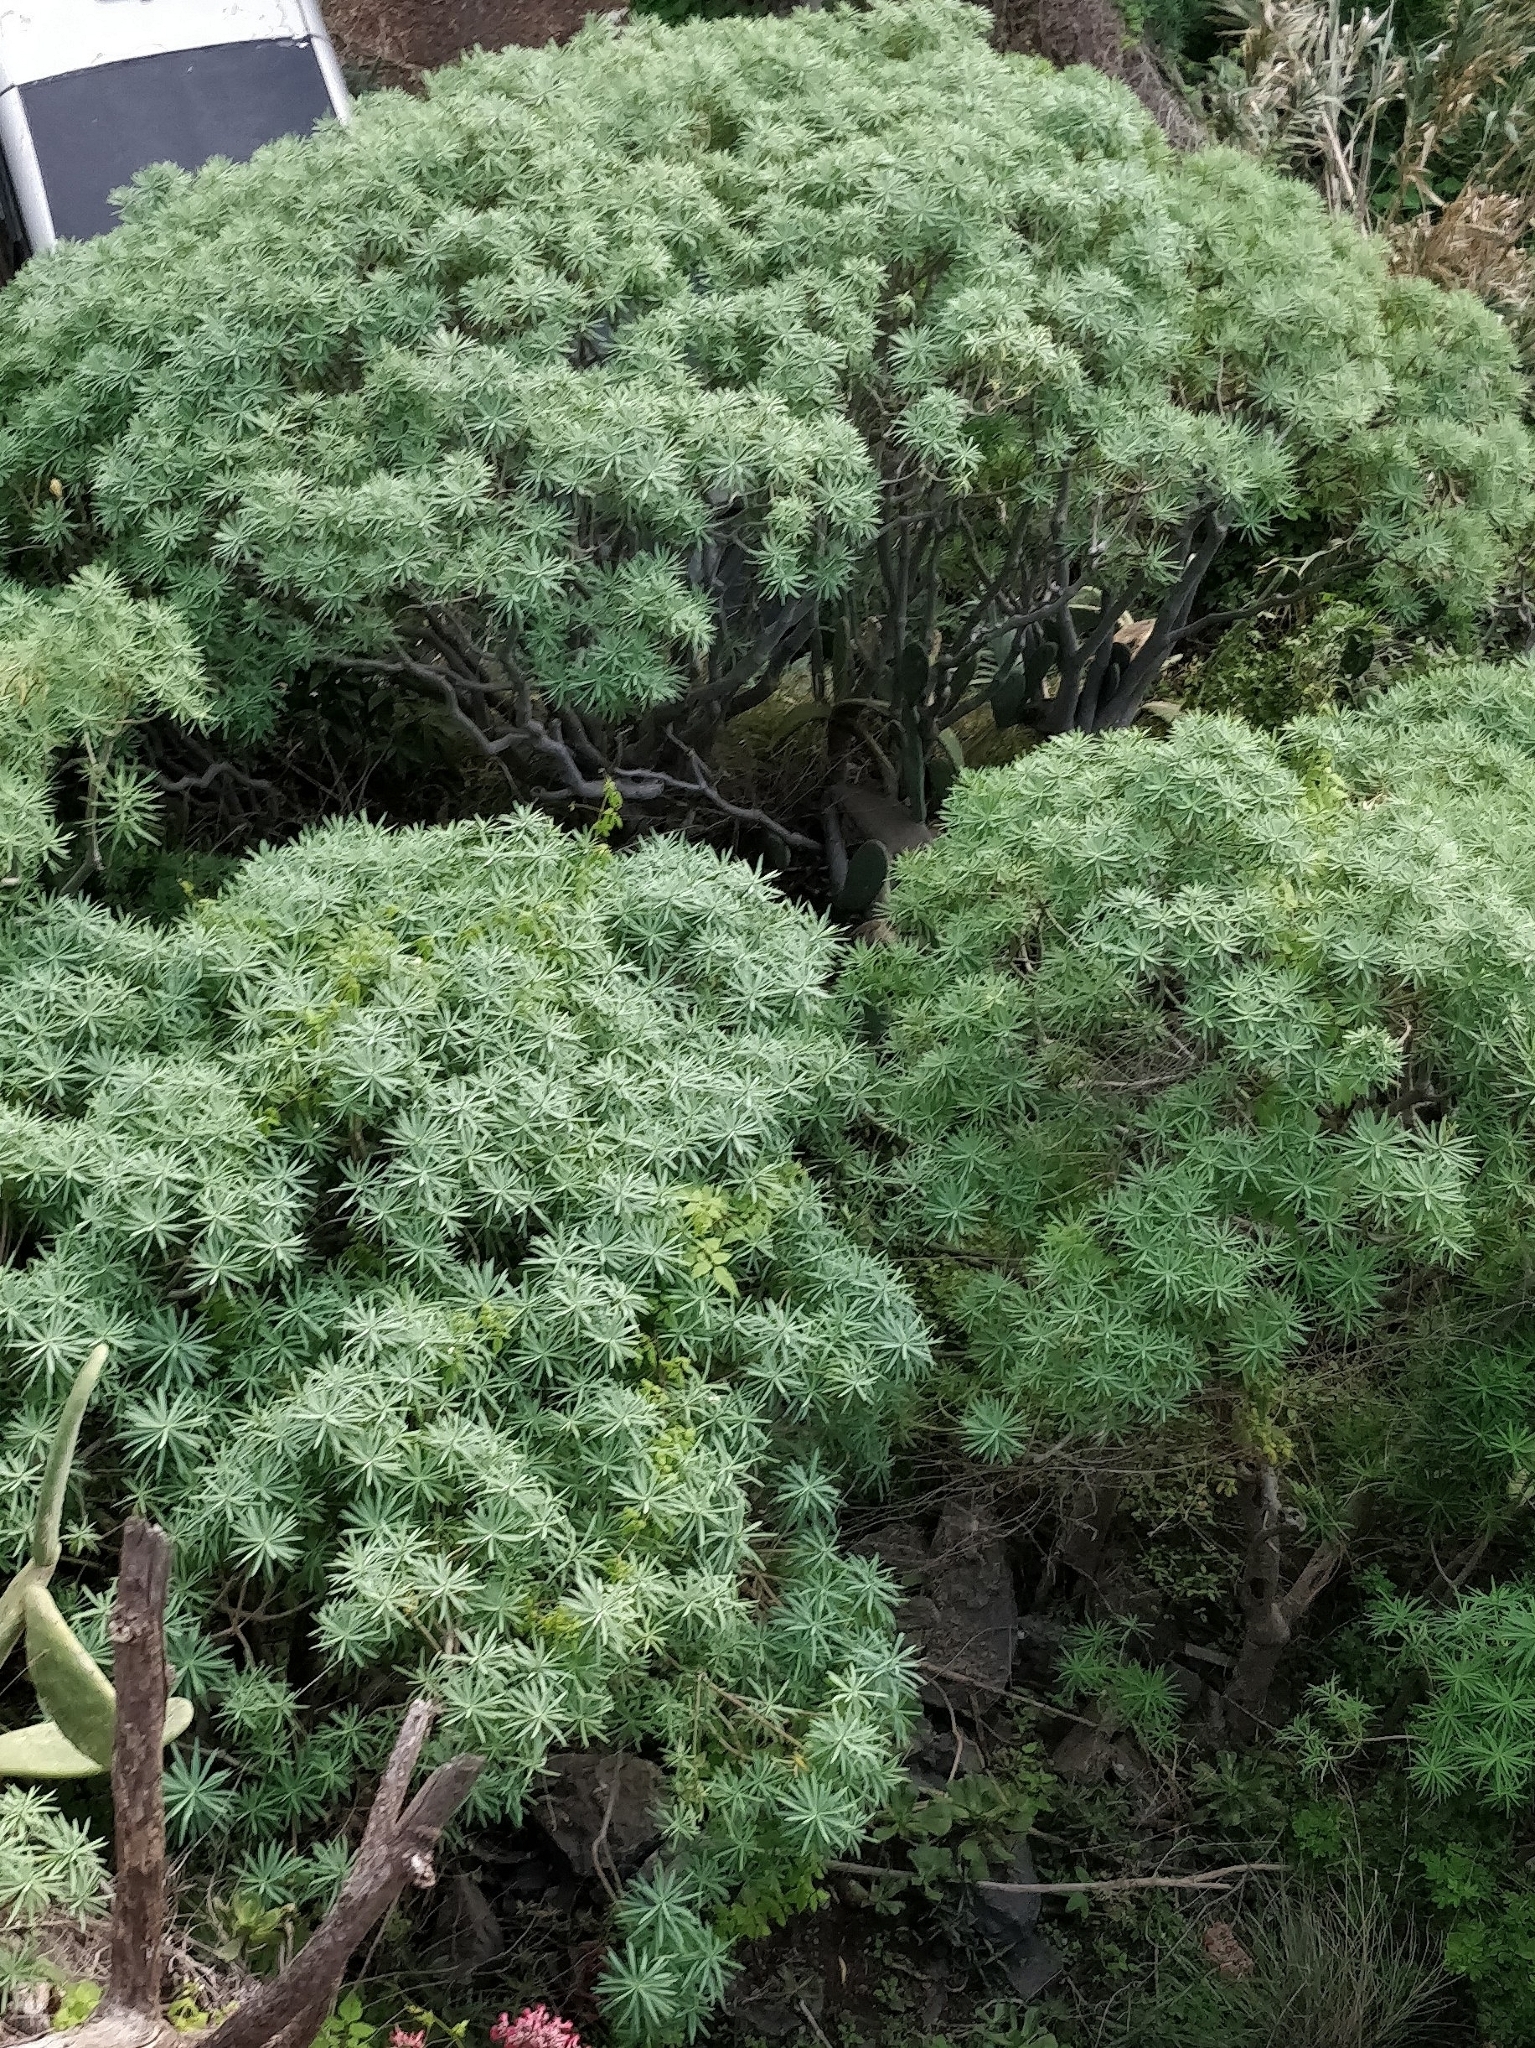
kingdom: Plantae
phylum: Tracheophyta
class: Magnoliopsida
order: Malpighiales
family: Euphorbiaceae
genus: Euphorbia
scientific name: Euphorbia piscatoria
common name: Fish-stunning spurge
